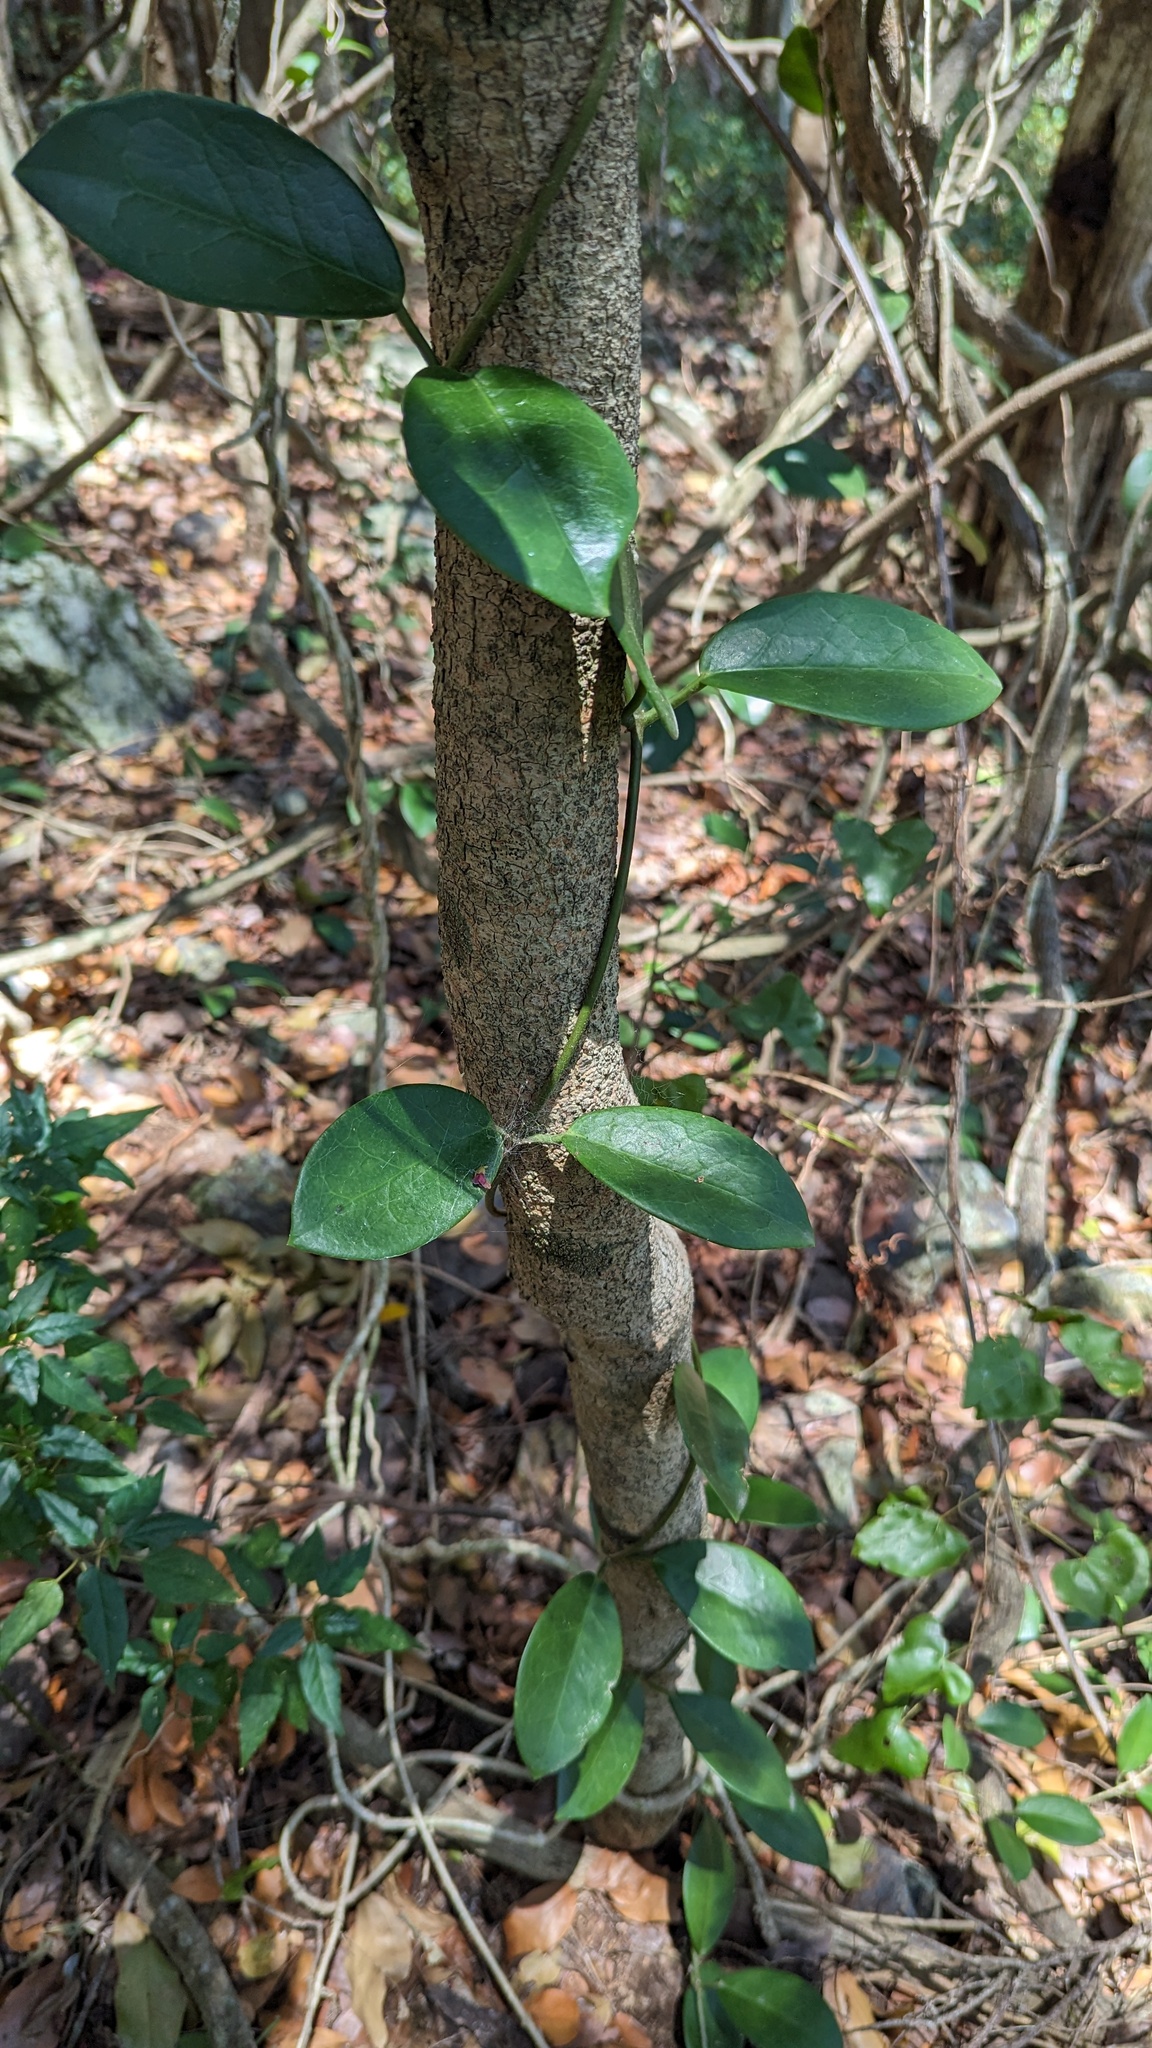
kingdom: Plantae
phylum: Tracheophyta
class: Magnoliopsida
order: Gentianales
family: Apocynaceae
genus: Hoya
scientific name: Hoya australis
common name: Wax flower
